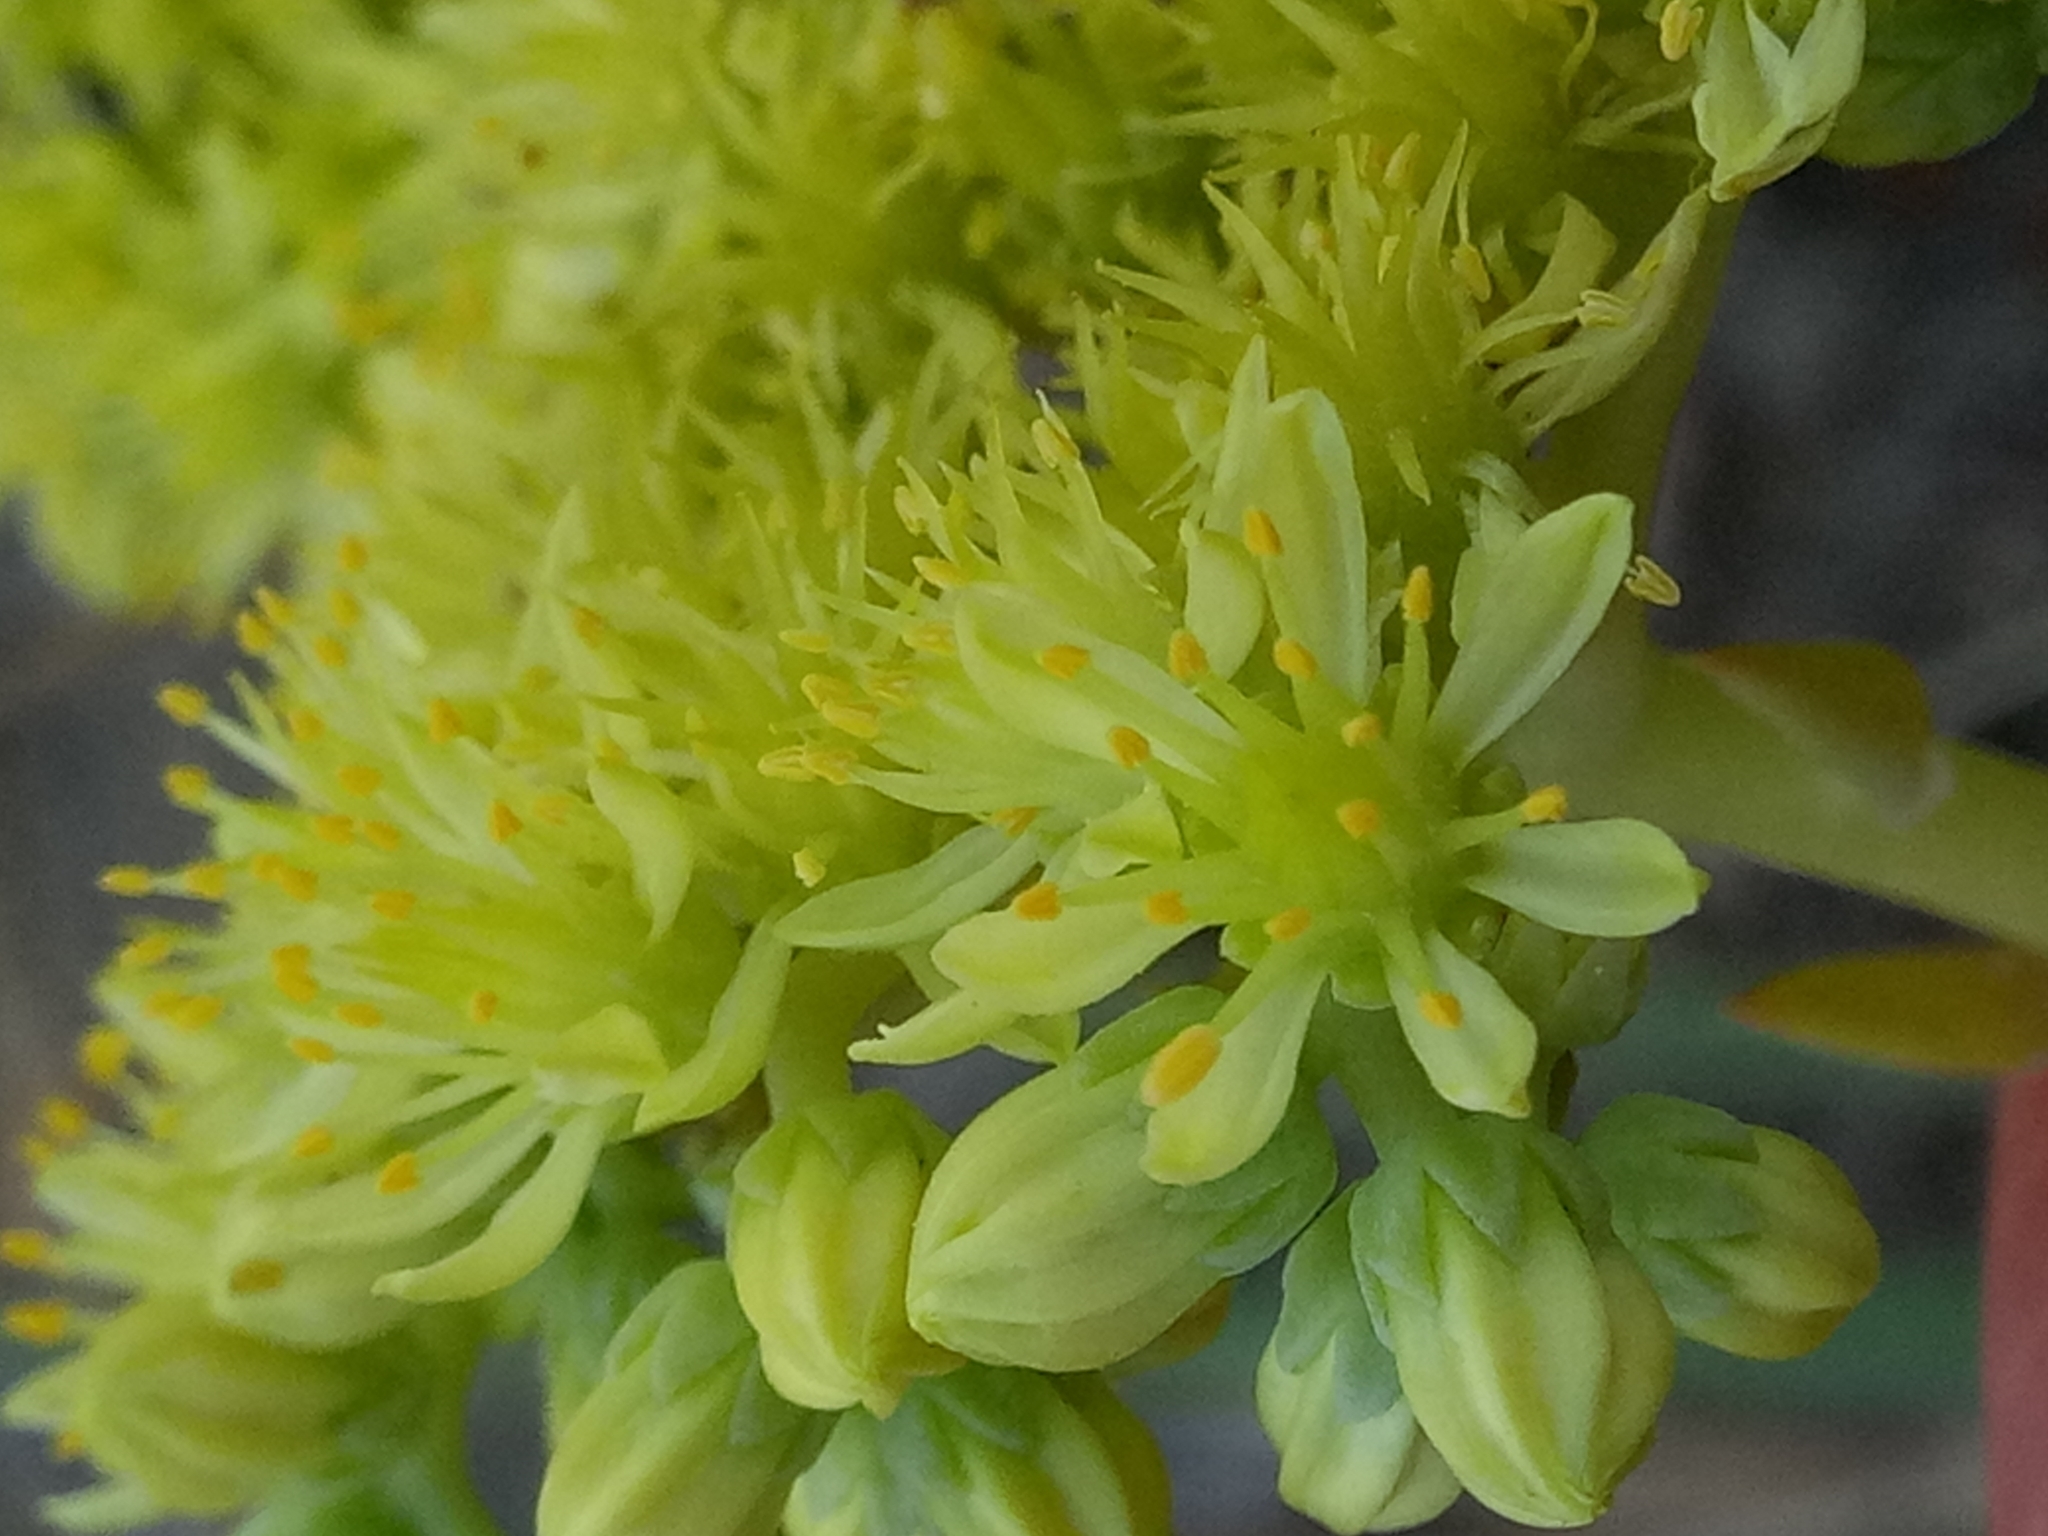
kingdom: Plantae
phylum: Tracheophyta
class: Magnoliopsida
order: Saxifragales
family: Crassulaceae
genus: Petrosedum
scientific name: Petrosedum sediforme
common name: Pale stonecrop
